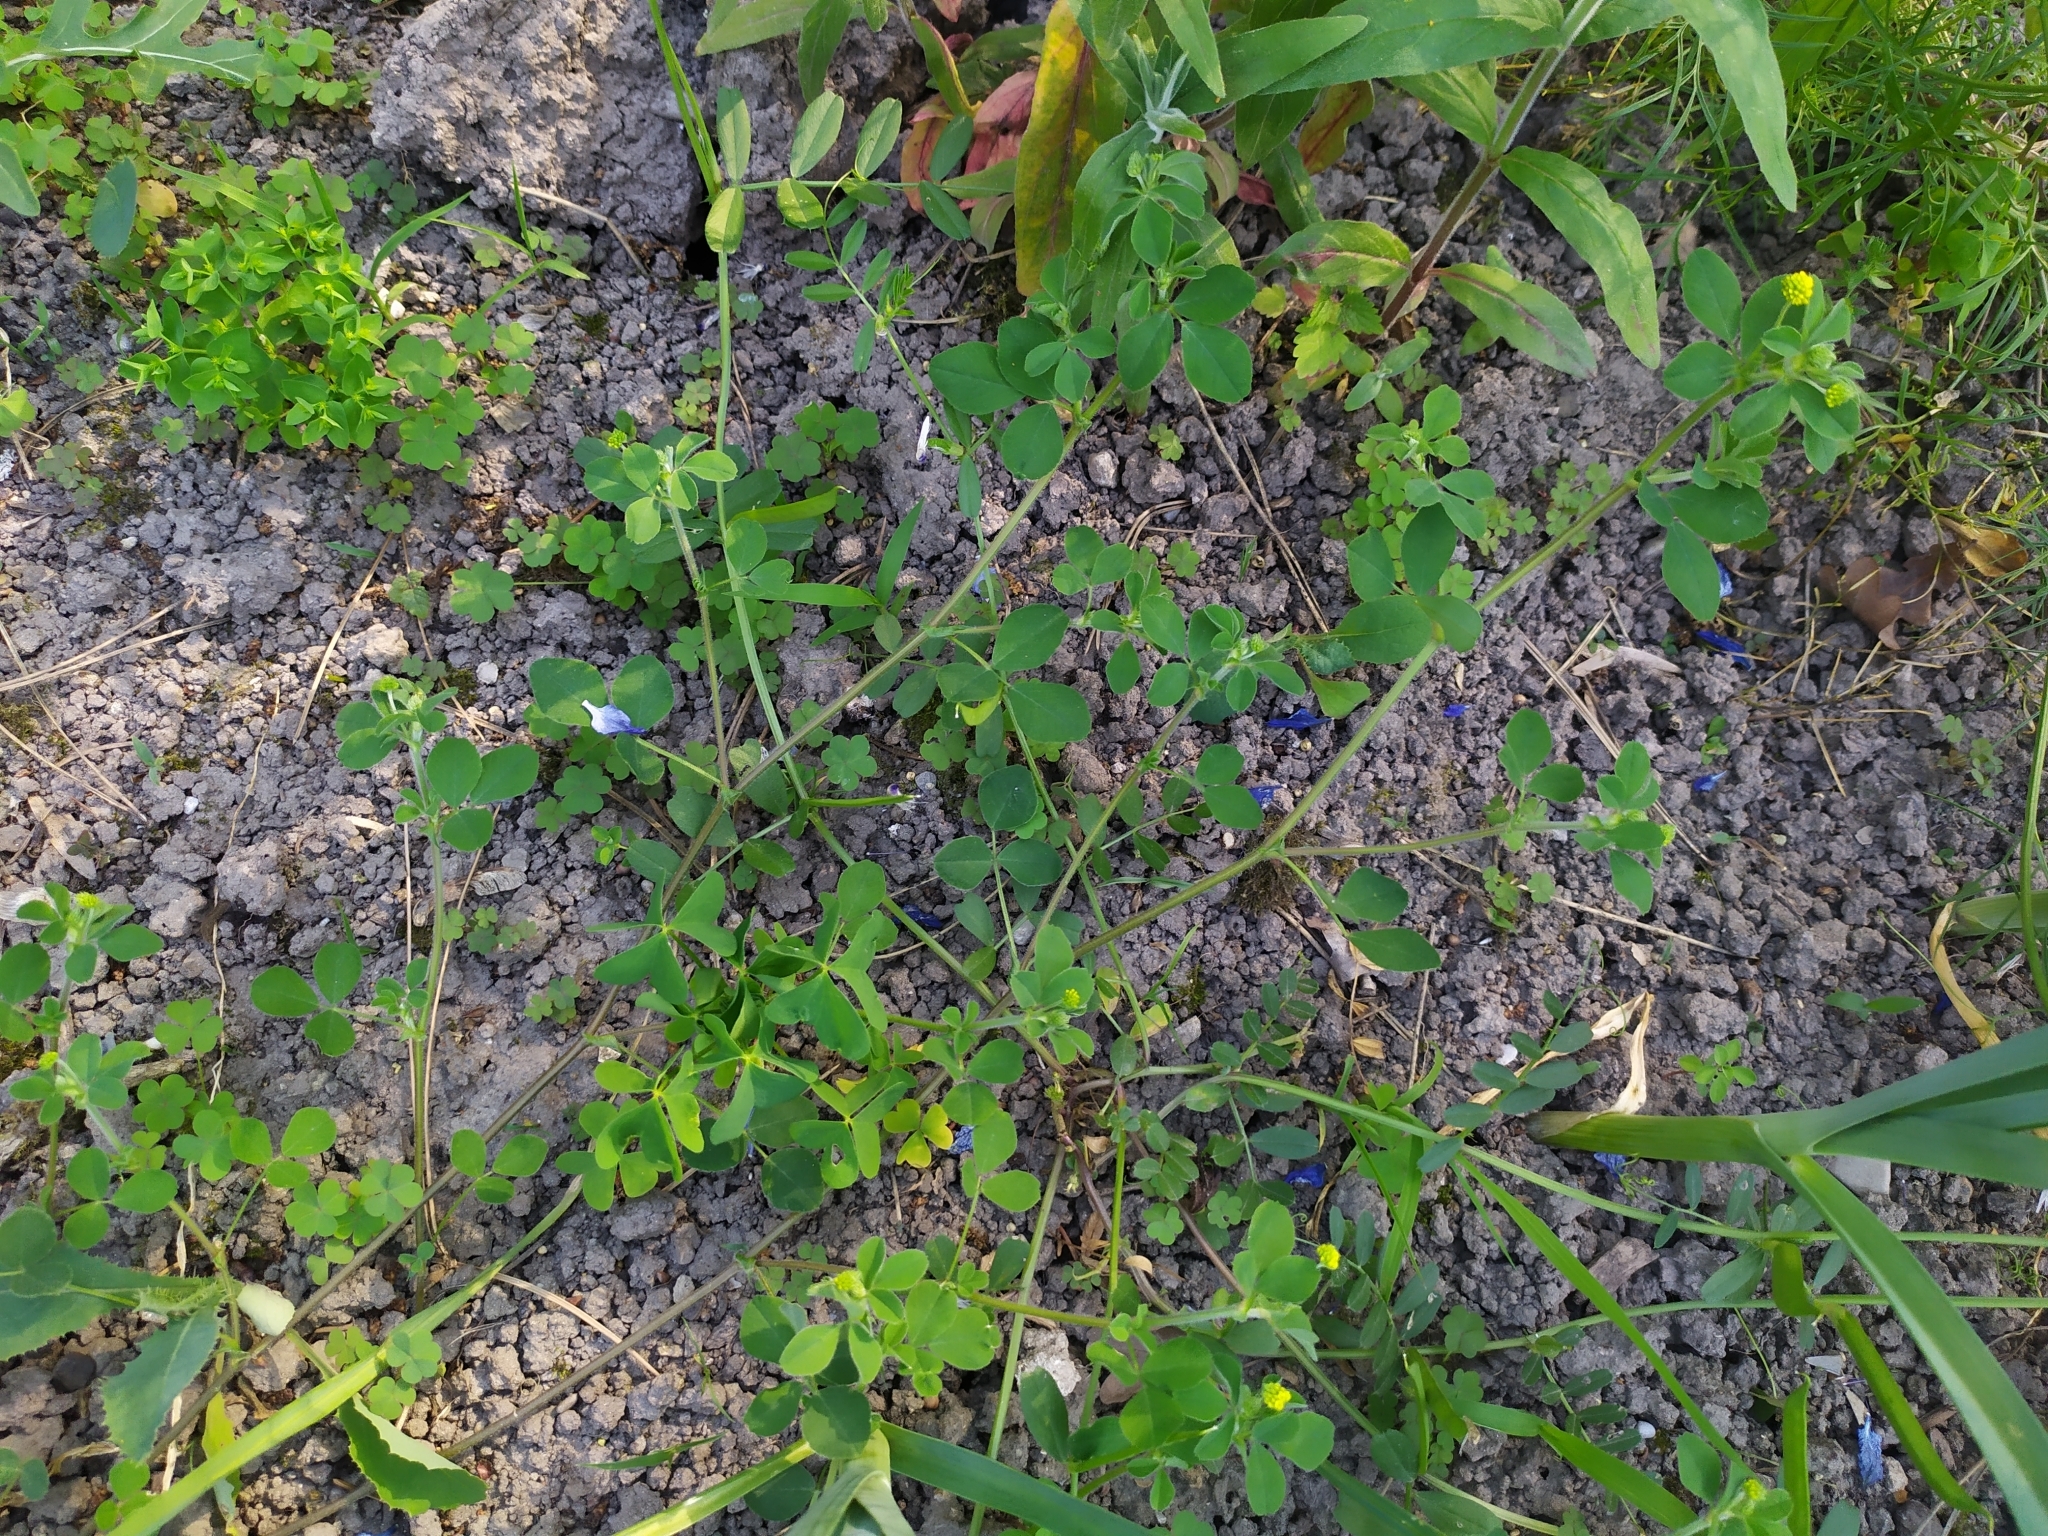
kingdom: Plantae
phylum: Tracheophyta
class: Magnoliopsida
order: Fabales
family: Fabaceae
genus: Medicago
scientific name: Medicago lupulina
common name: Black medick
